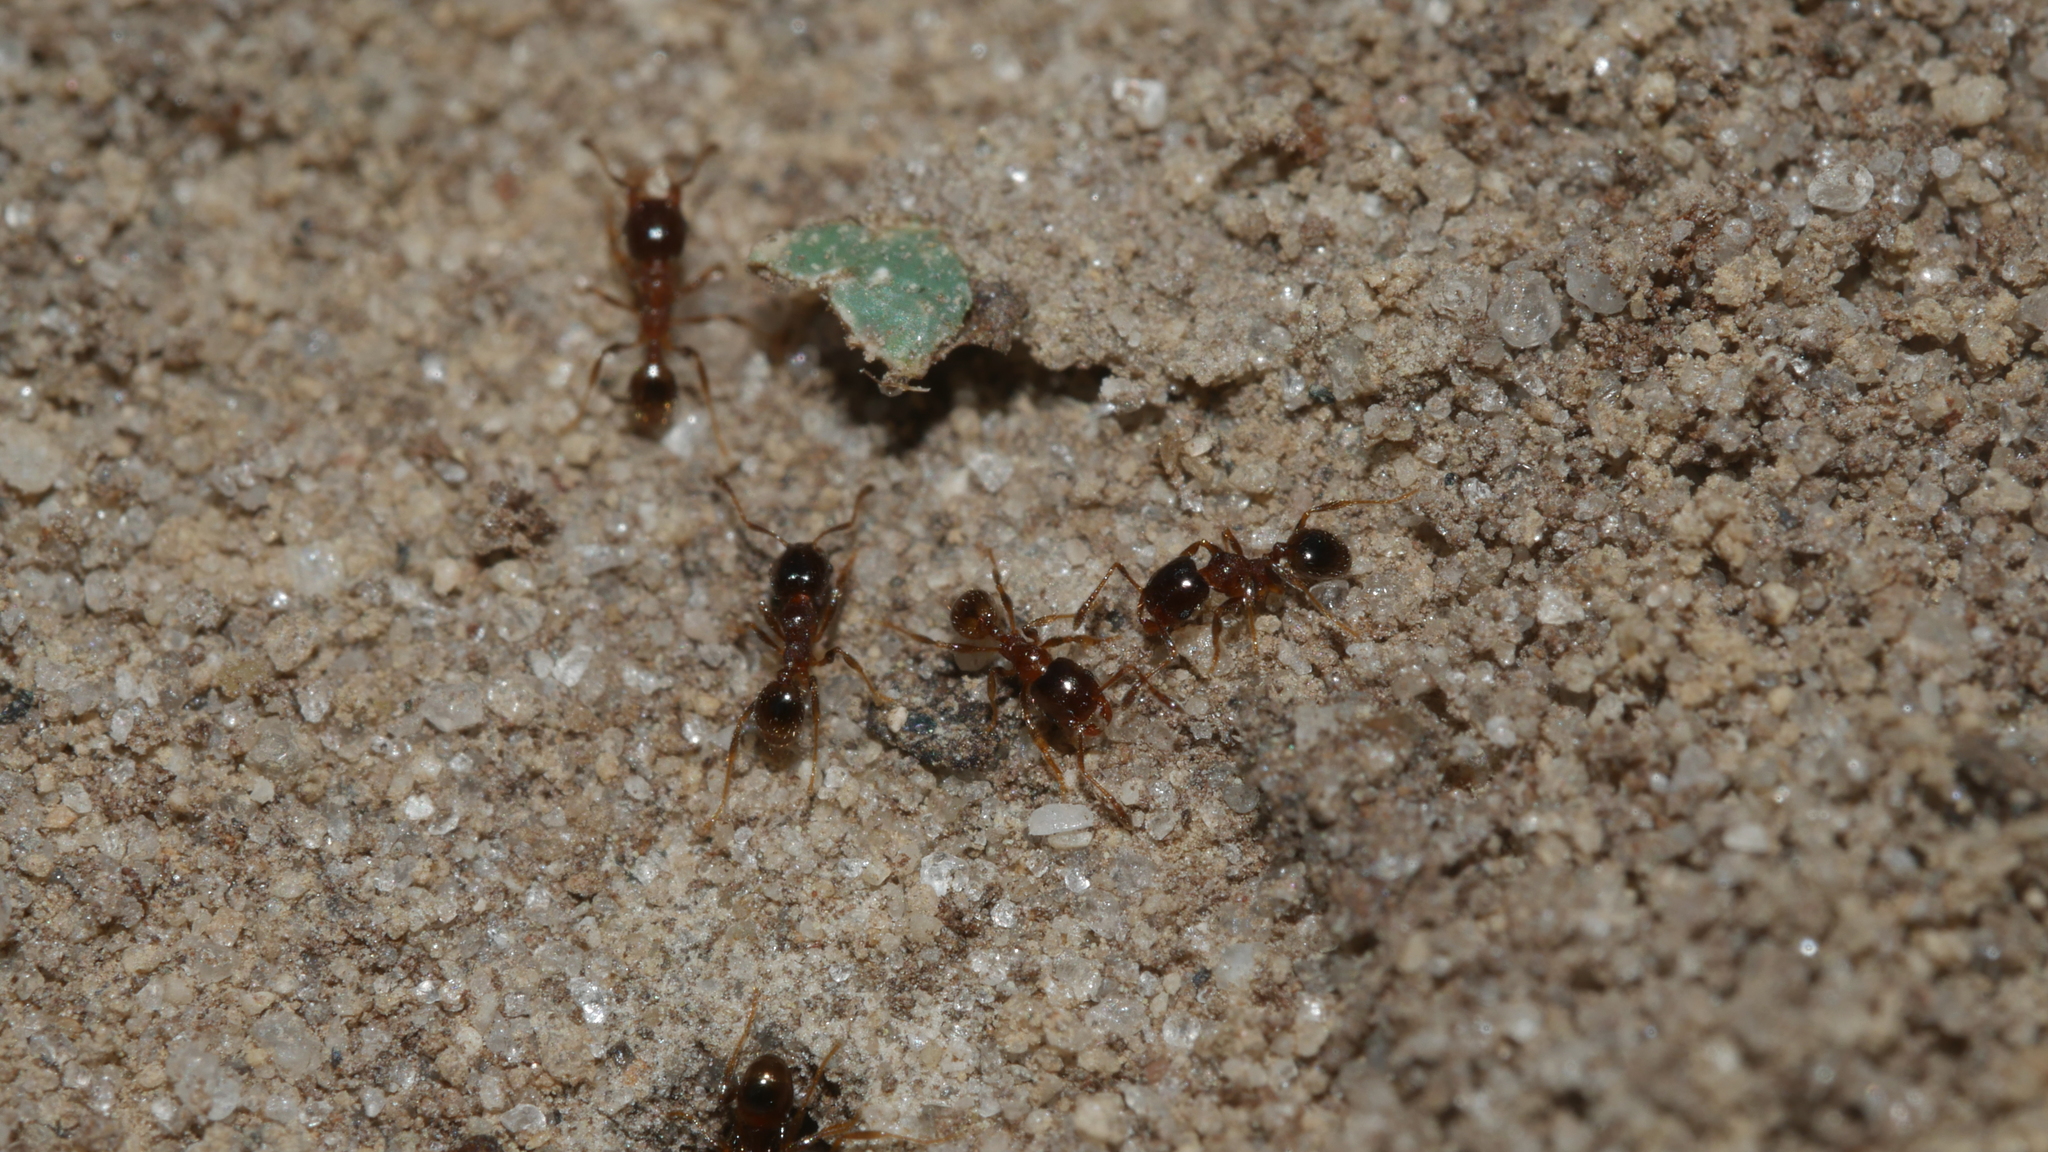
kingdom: Animalia
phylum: Arthropoda
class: Insecta
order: Hymenoptera
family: Formicidae
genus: Pheidole
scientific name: Pheidole bicarinata
